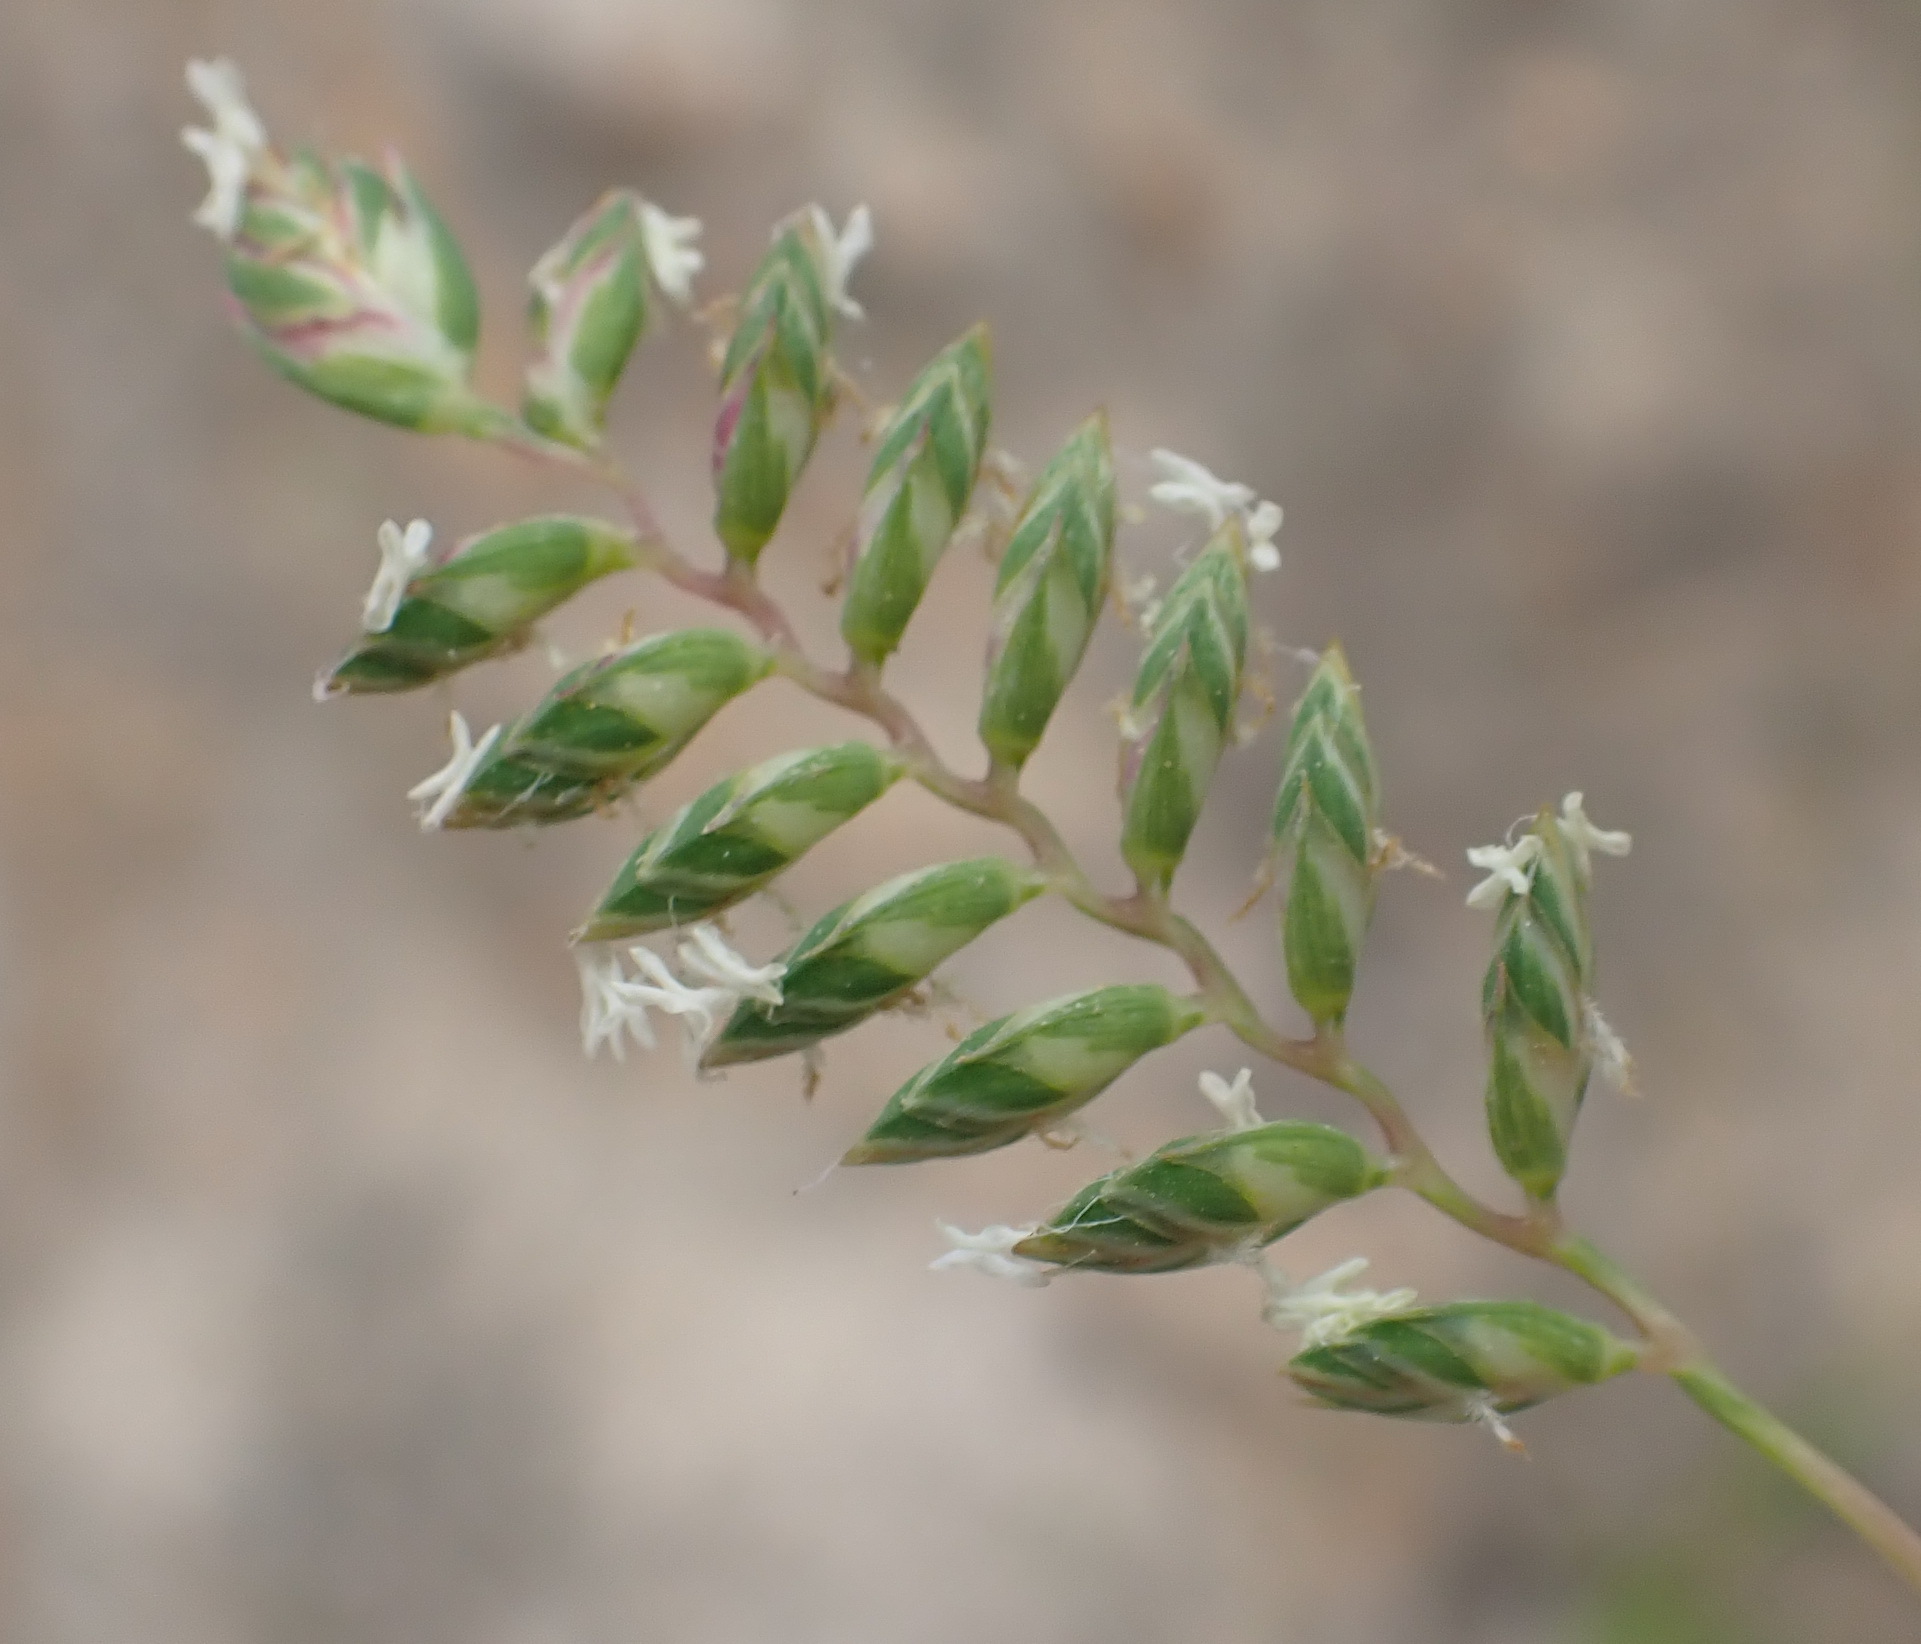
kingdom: Plantae
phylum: Tracheophyta
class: Liliopsida
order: Poales
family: Poaceae
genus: Tribolium
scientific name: Tribolium uniolae
